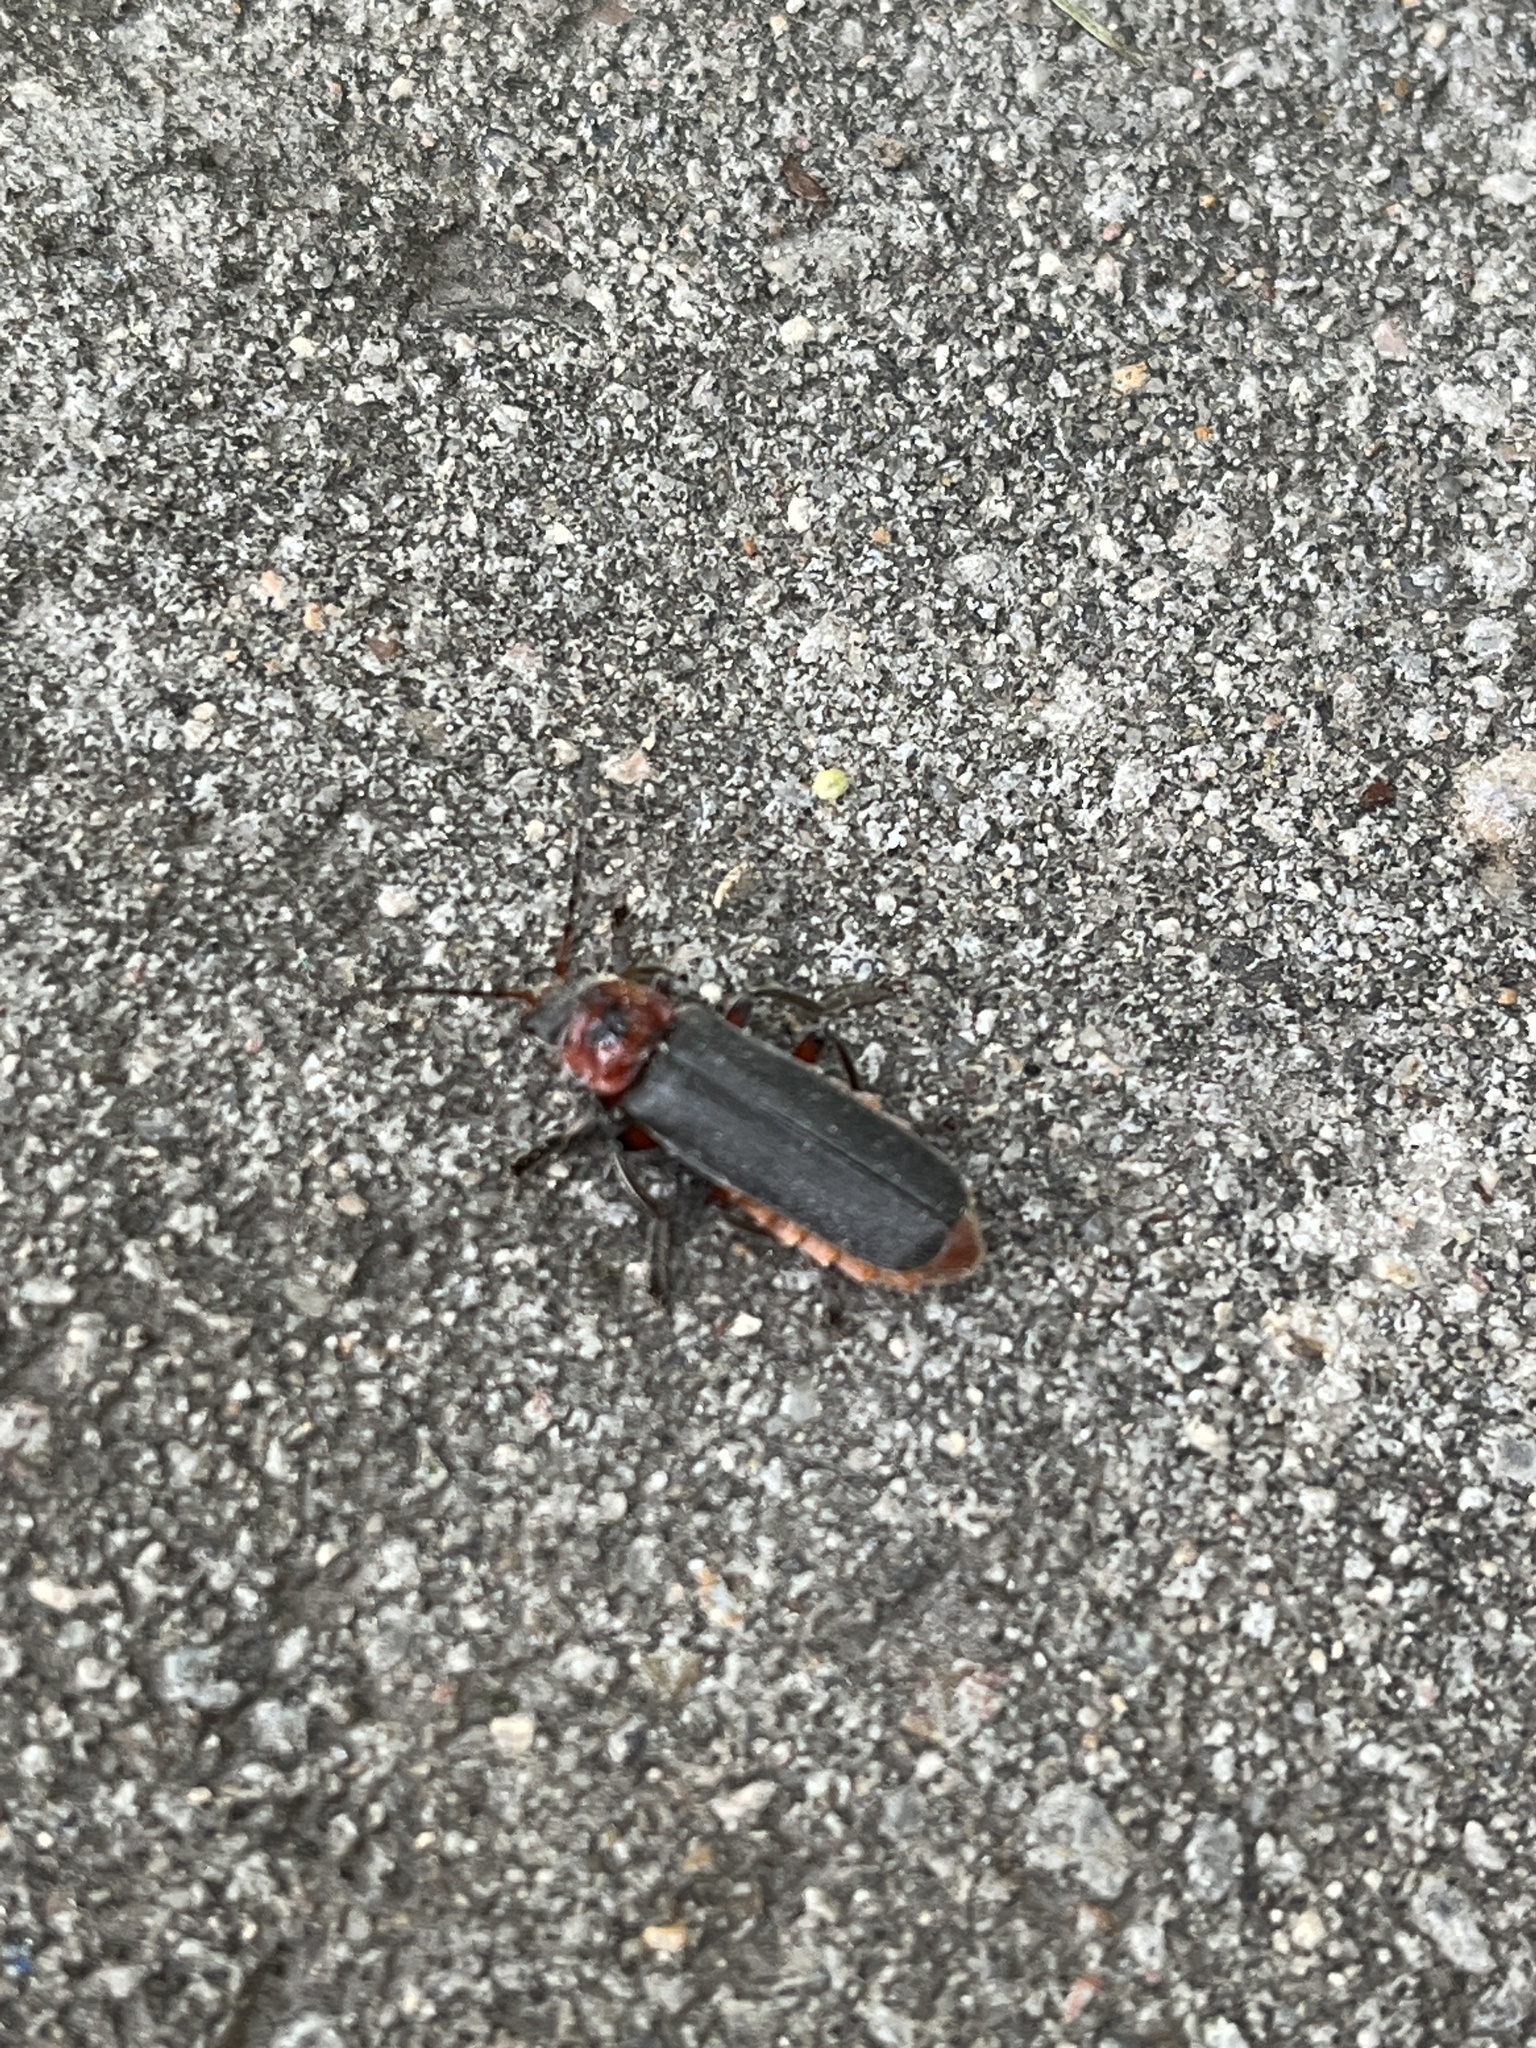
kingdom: Animalia
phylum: Arthropoda
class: Insecta
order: Coleoptera
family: Cantharidae
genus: Cantharis
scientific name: Cantharis rustica
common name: Soldier beetle
